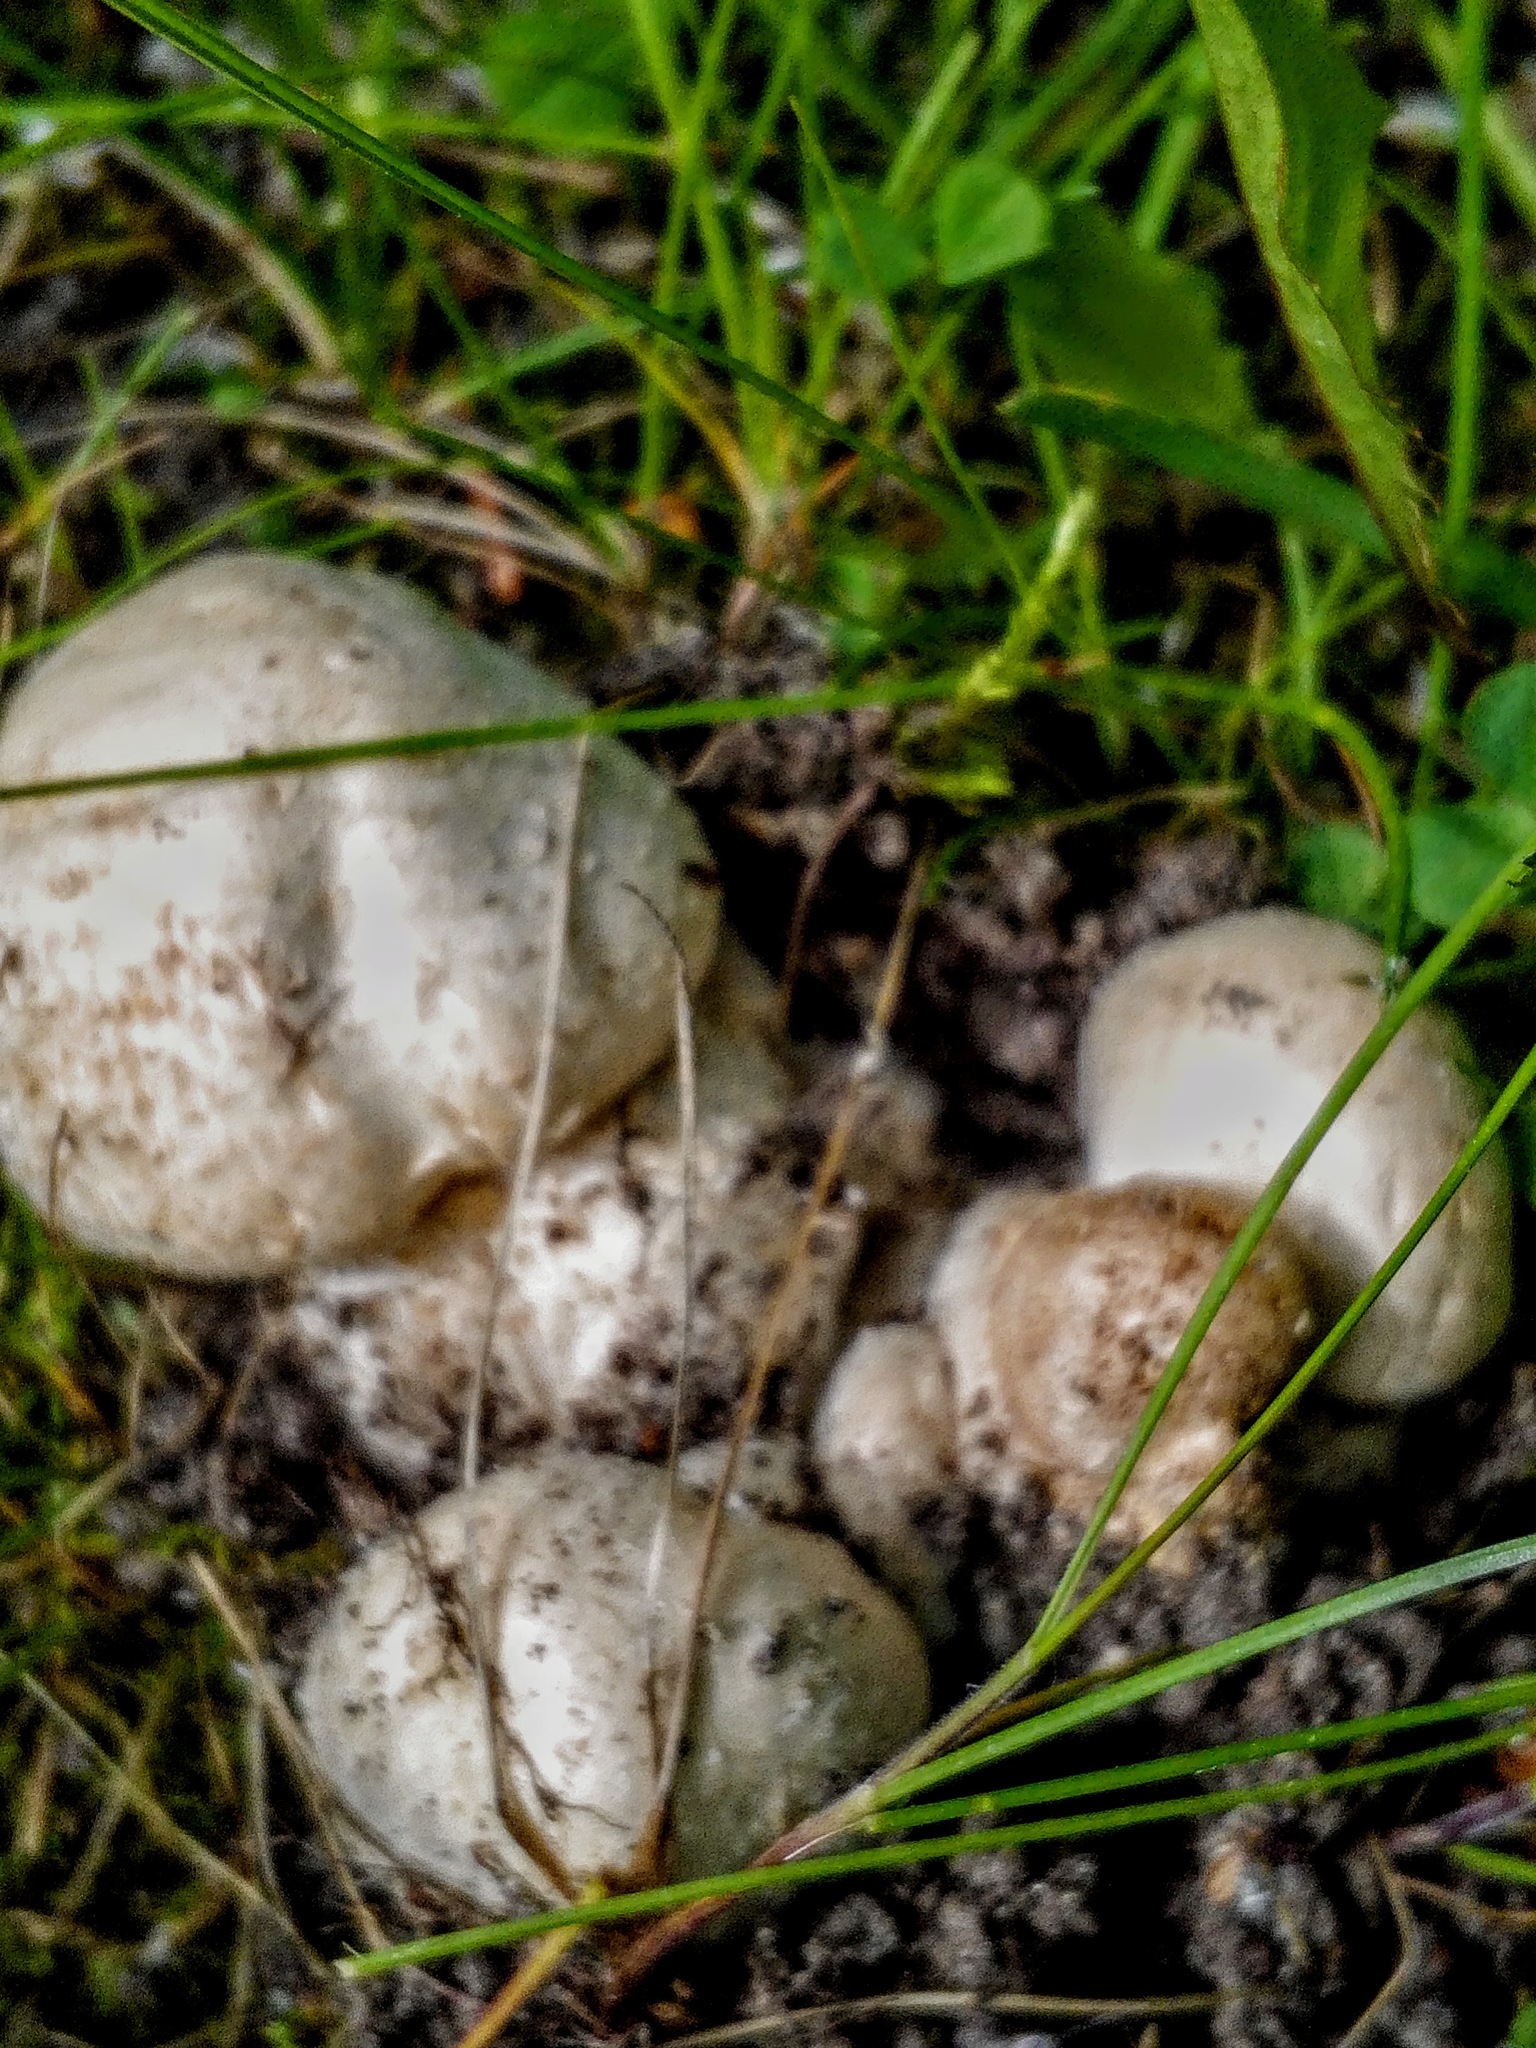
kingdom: Fungi
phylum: Basidiomycota
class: Agaricomycetes
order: Agaricales
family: Agaricaceae
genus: Agaricus
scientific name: Agaricus campestris
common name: Field mushroom
